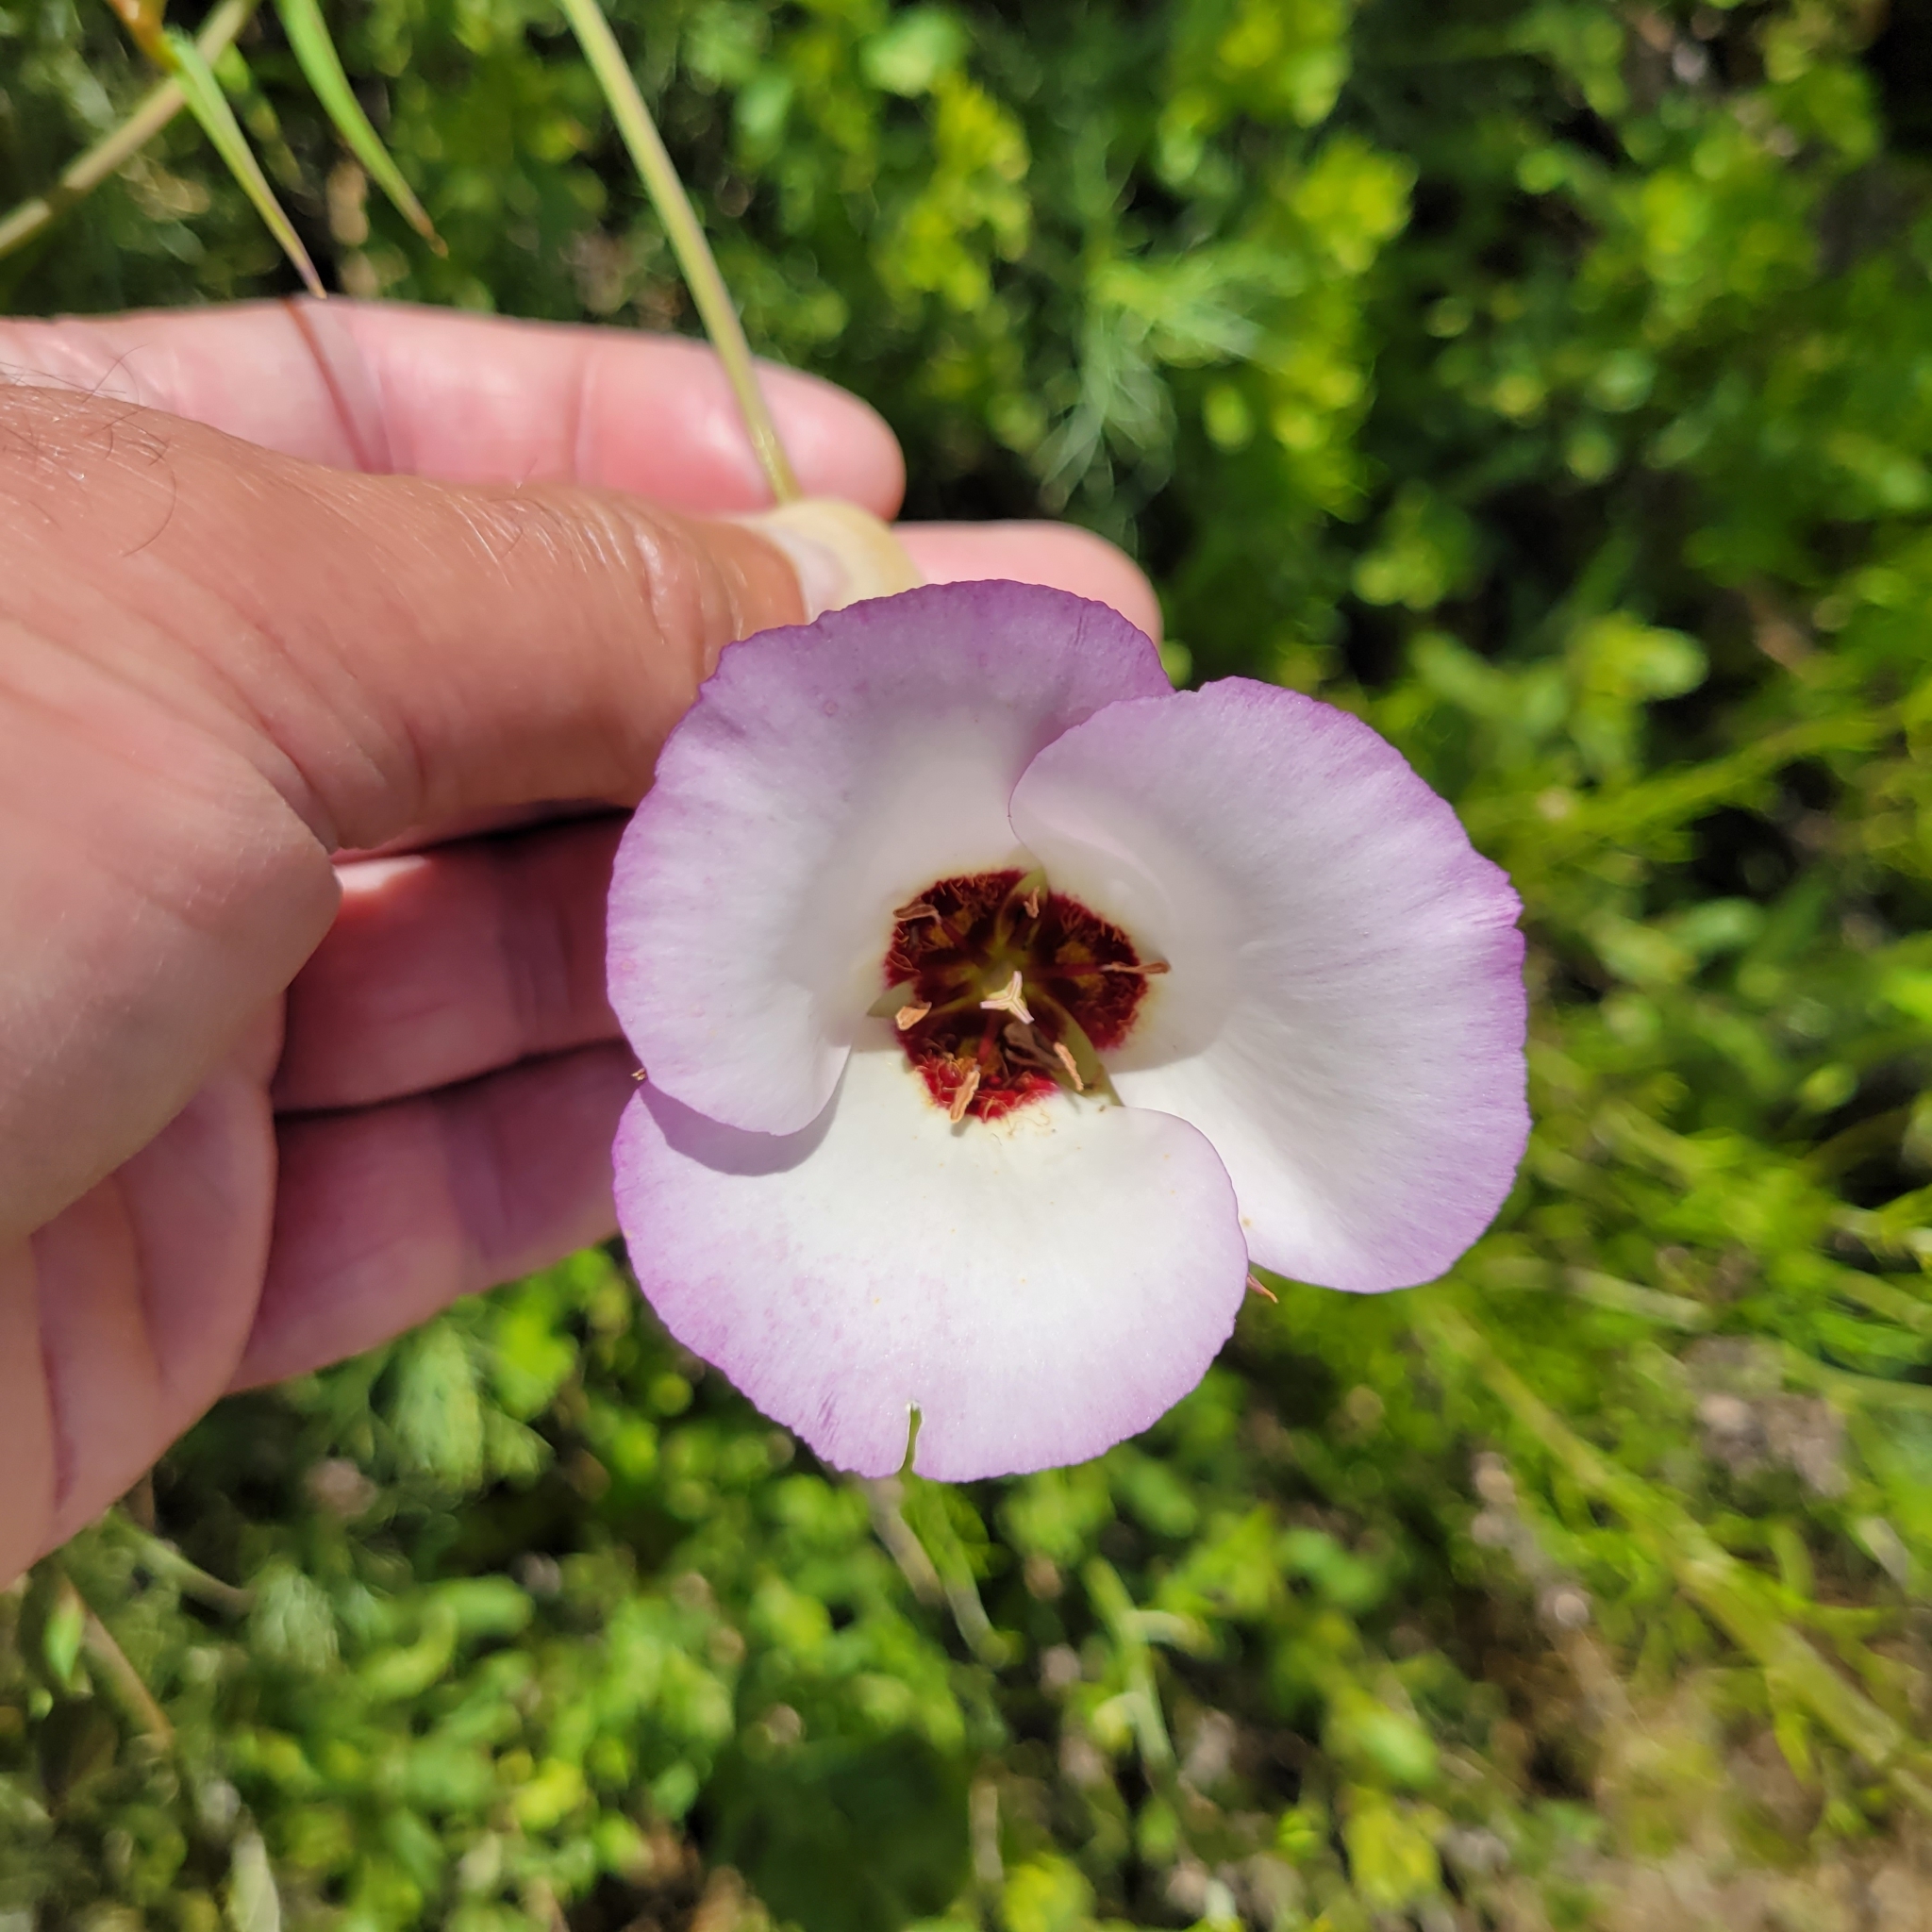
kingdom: Plantae
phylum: Tracheophyta
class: Liliopsida
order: Liliales
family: Liliaceae
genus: Calochortus
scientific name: Calochortus catalinae
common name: Catalina mariposa-lily
